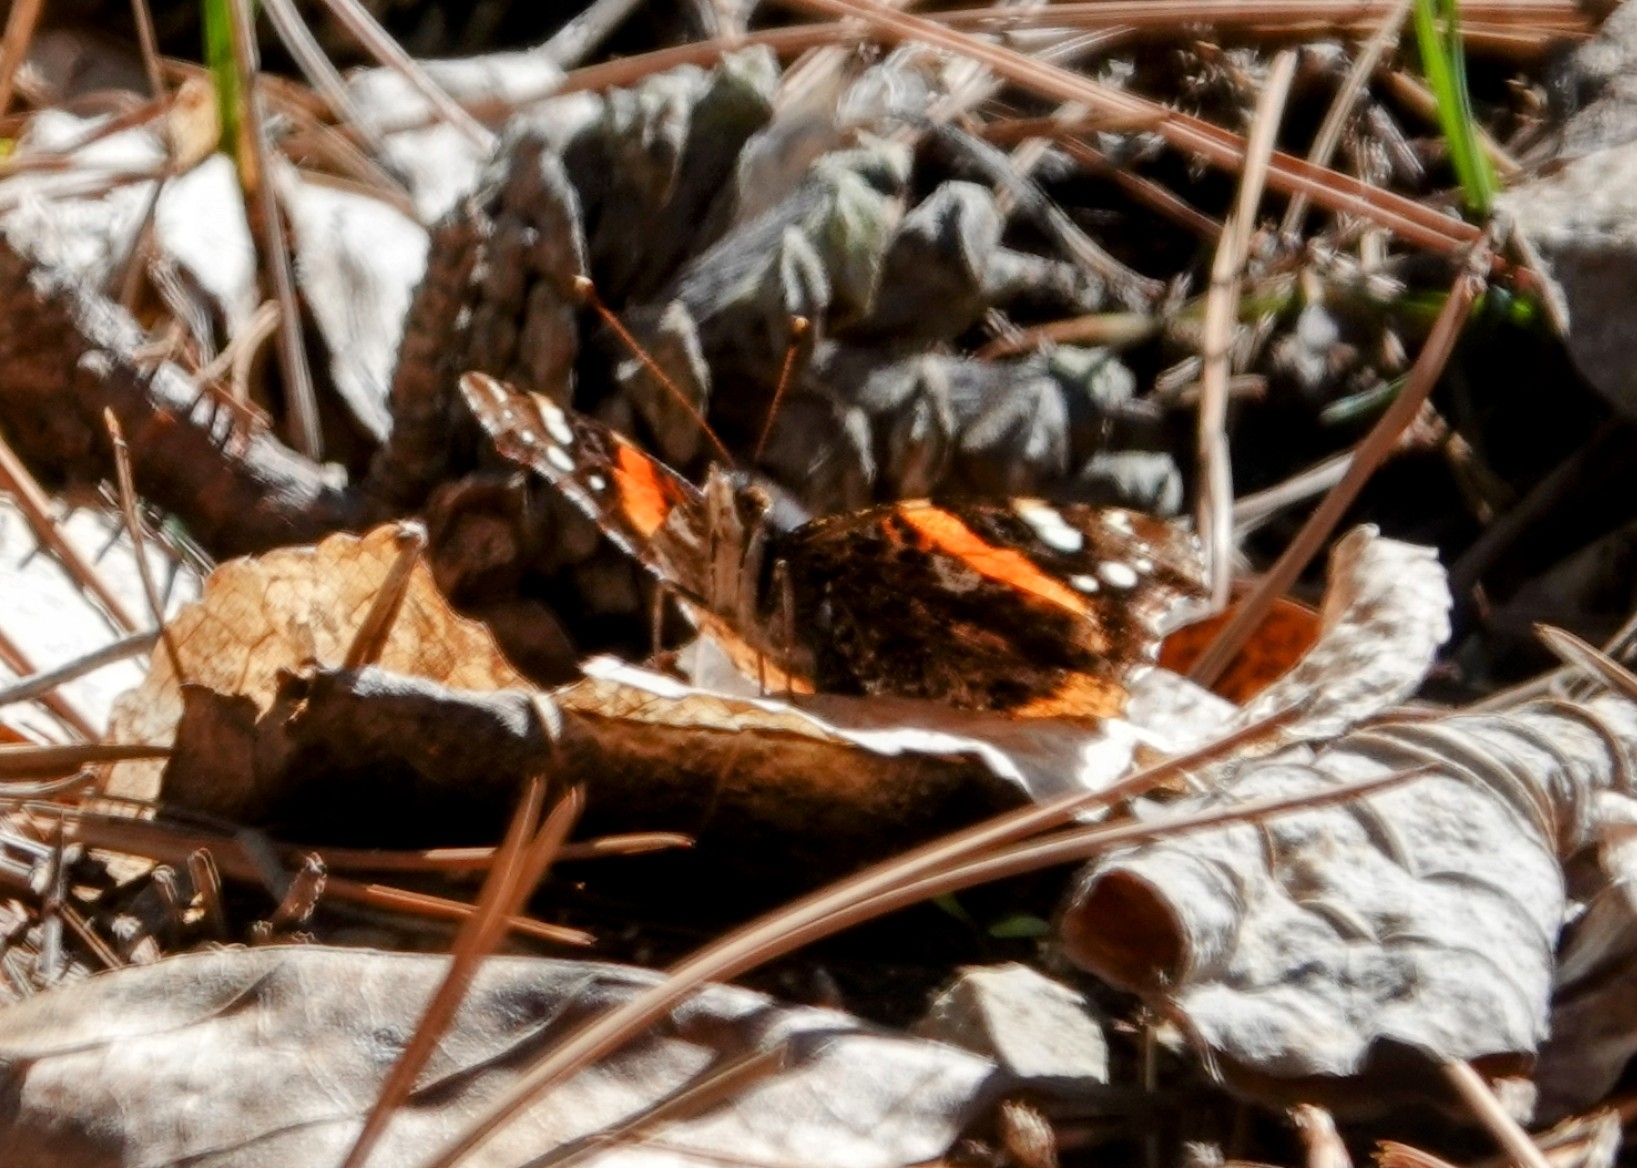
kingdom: Animalia
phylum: Arthropoda
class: Insecta
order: Lepidoptera
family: Nymphalidae
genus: Vanessa
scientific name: Vanessa atalanta
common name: Red admiral
